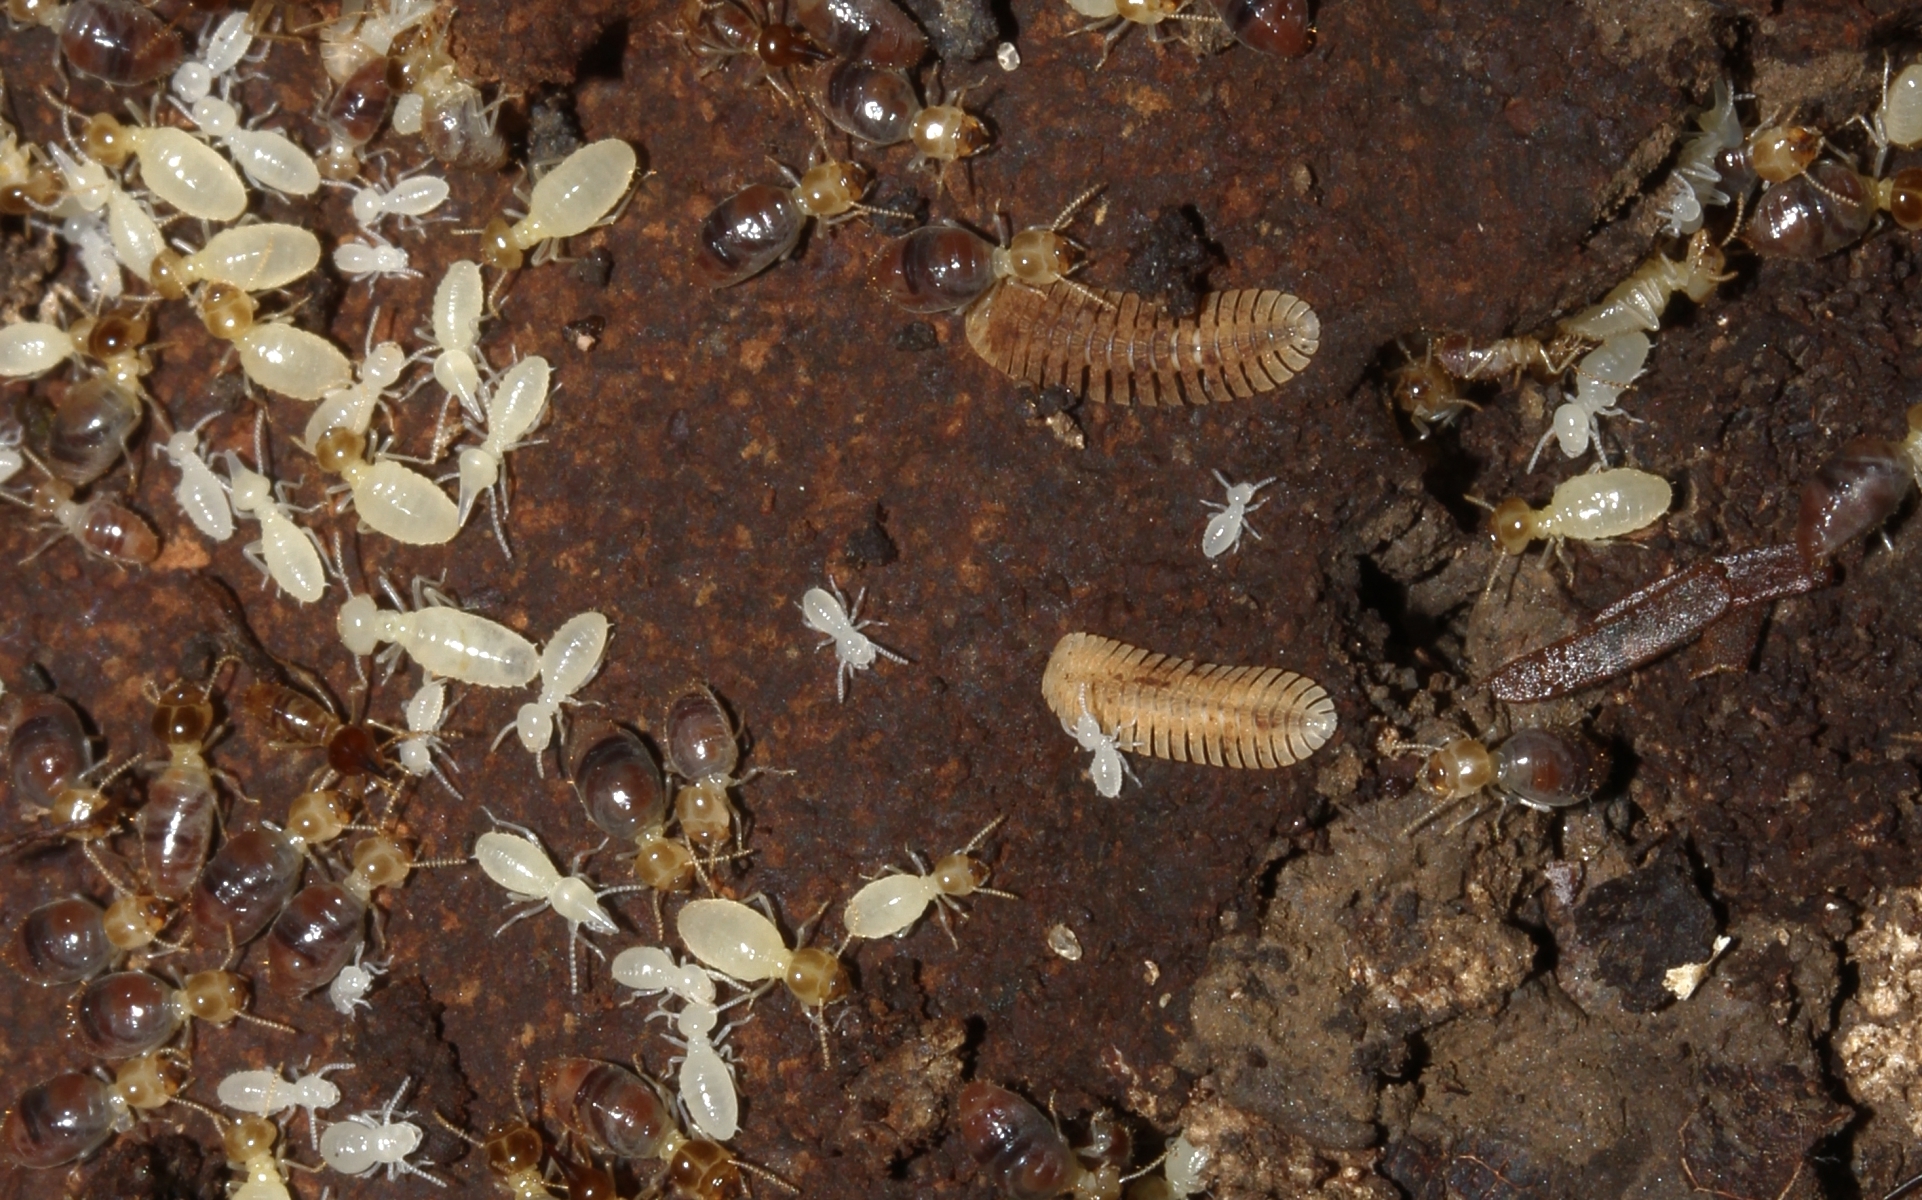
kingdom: Animalia
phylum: Arthropoda
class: Insecta
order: Blattodea
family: Termitidae
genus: Nasutitermes
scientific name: Nasutitermes
